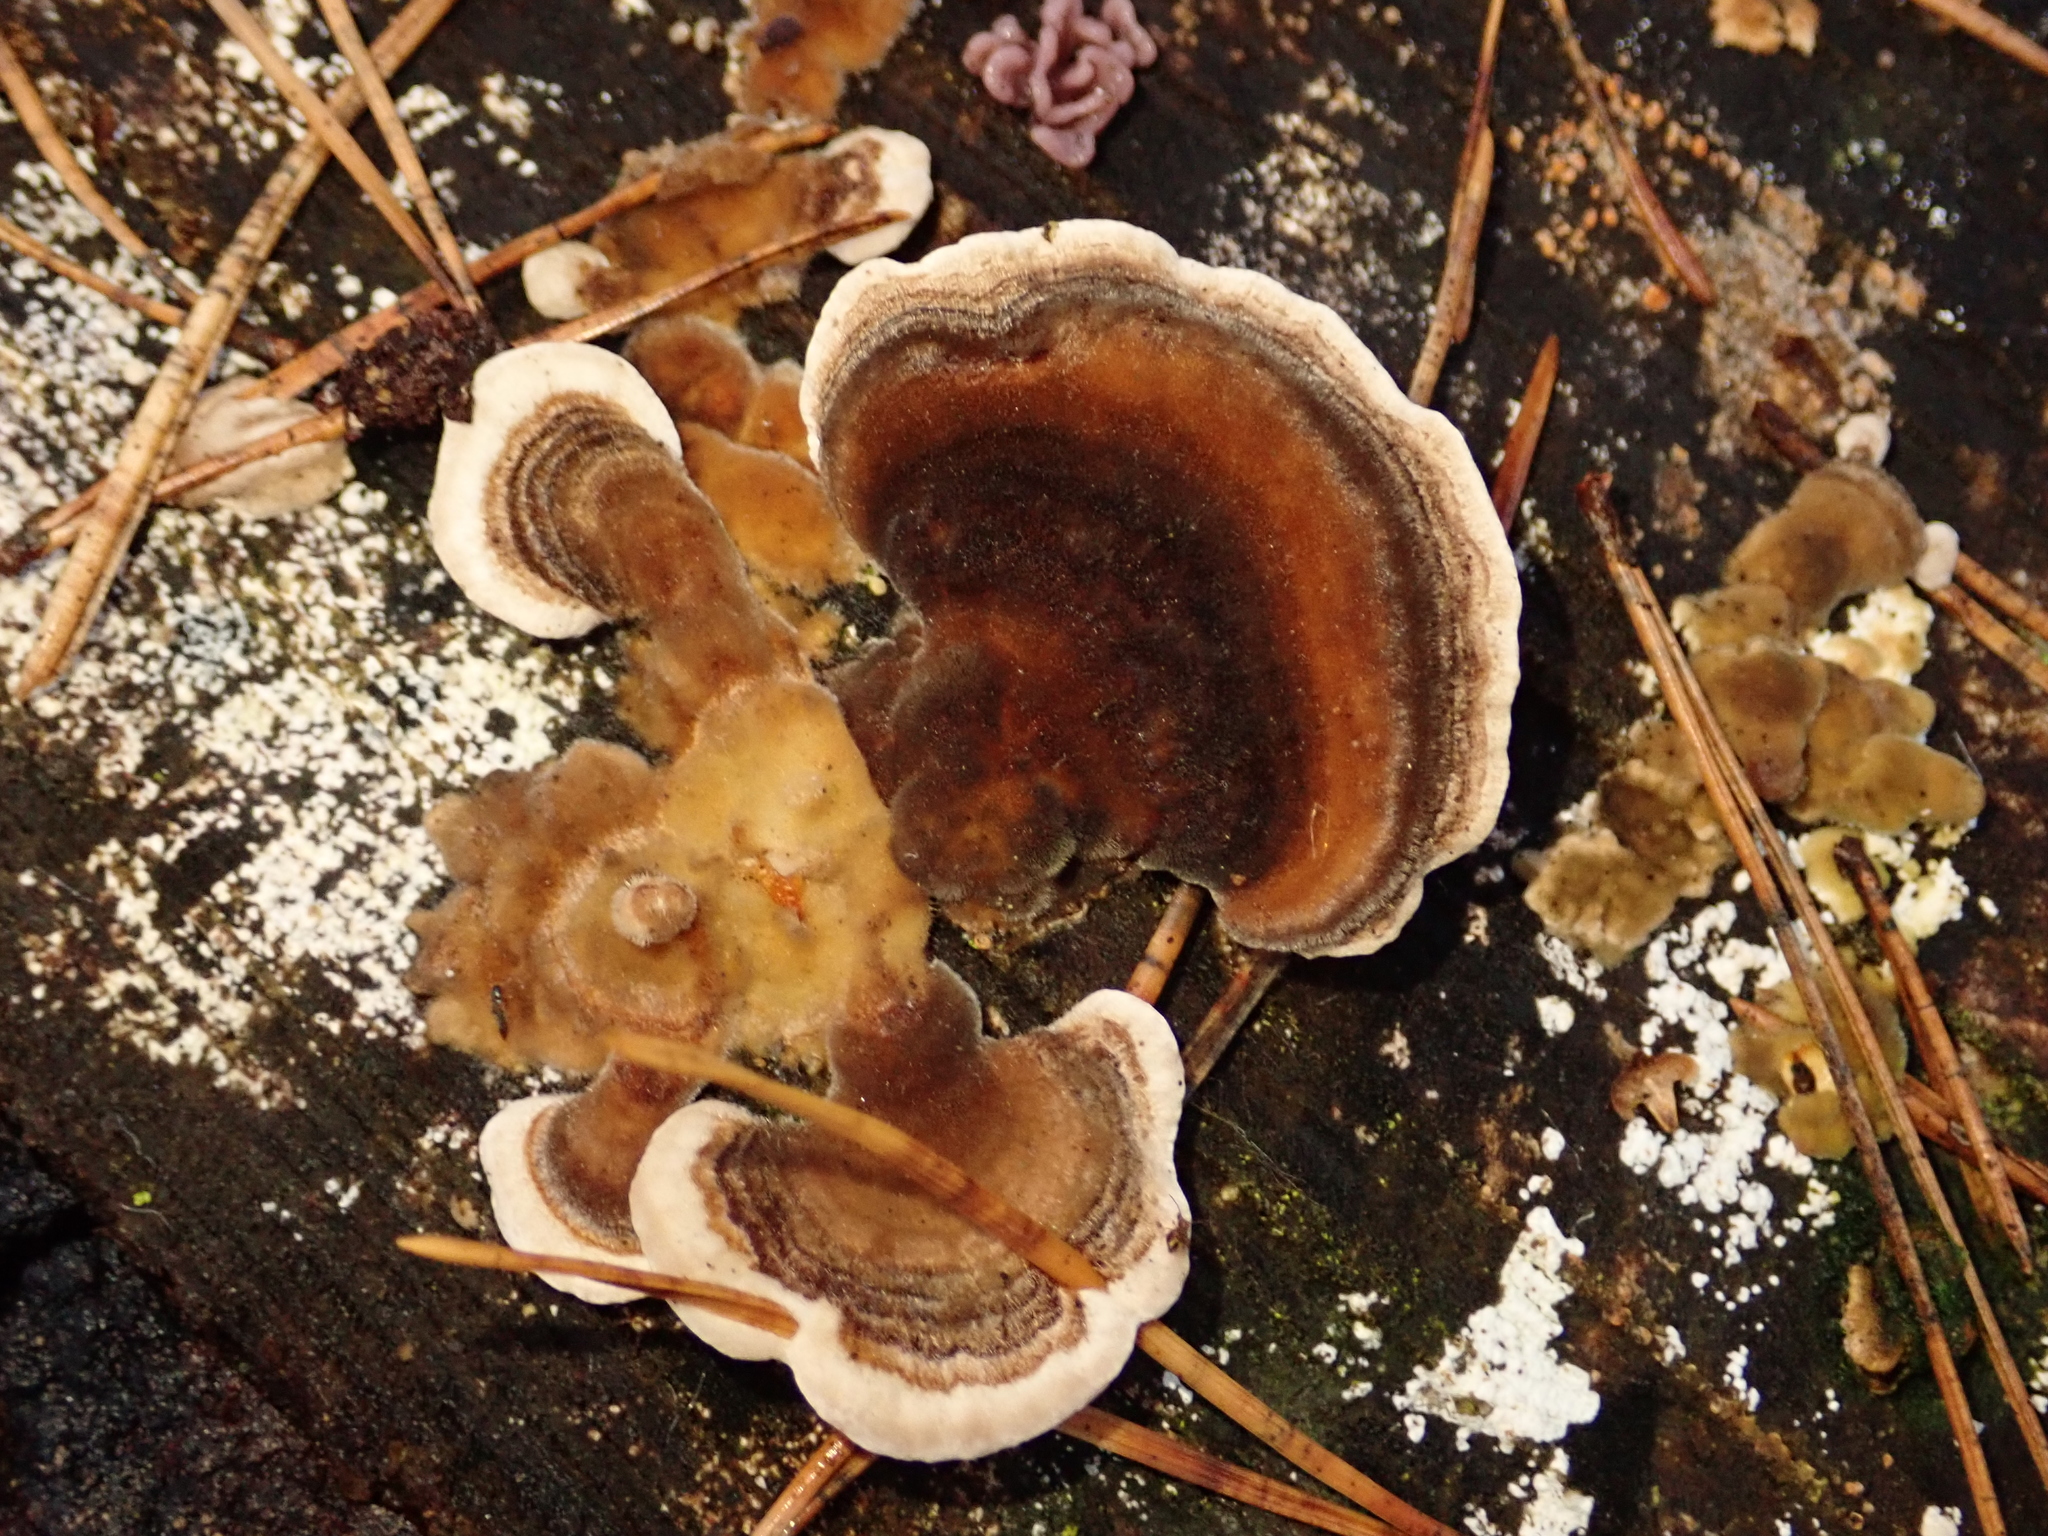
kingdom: Fungi
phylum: Basidiomycota
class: Agaricomycetes
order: Polyporales
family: Polyporaceae
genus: Trametes
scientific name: Trametes versicolor
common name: Turkeytail
